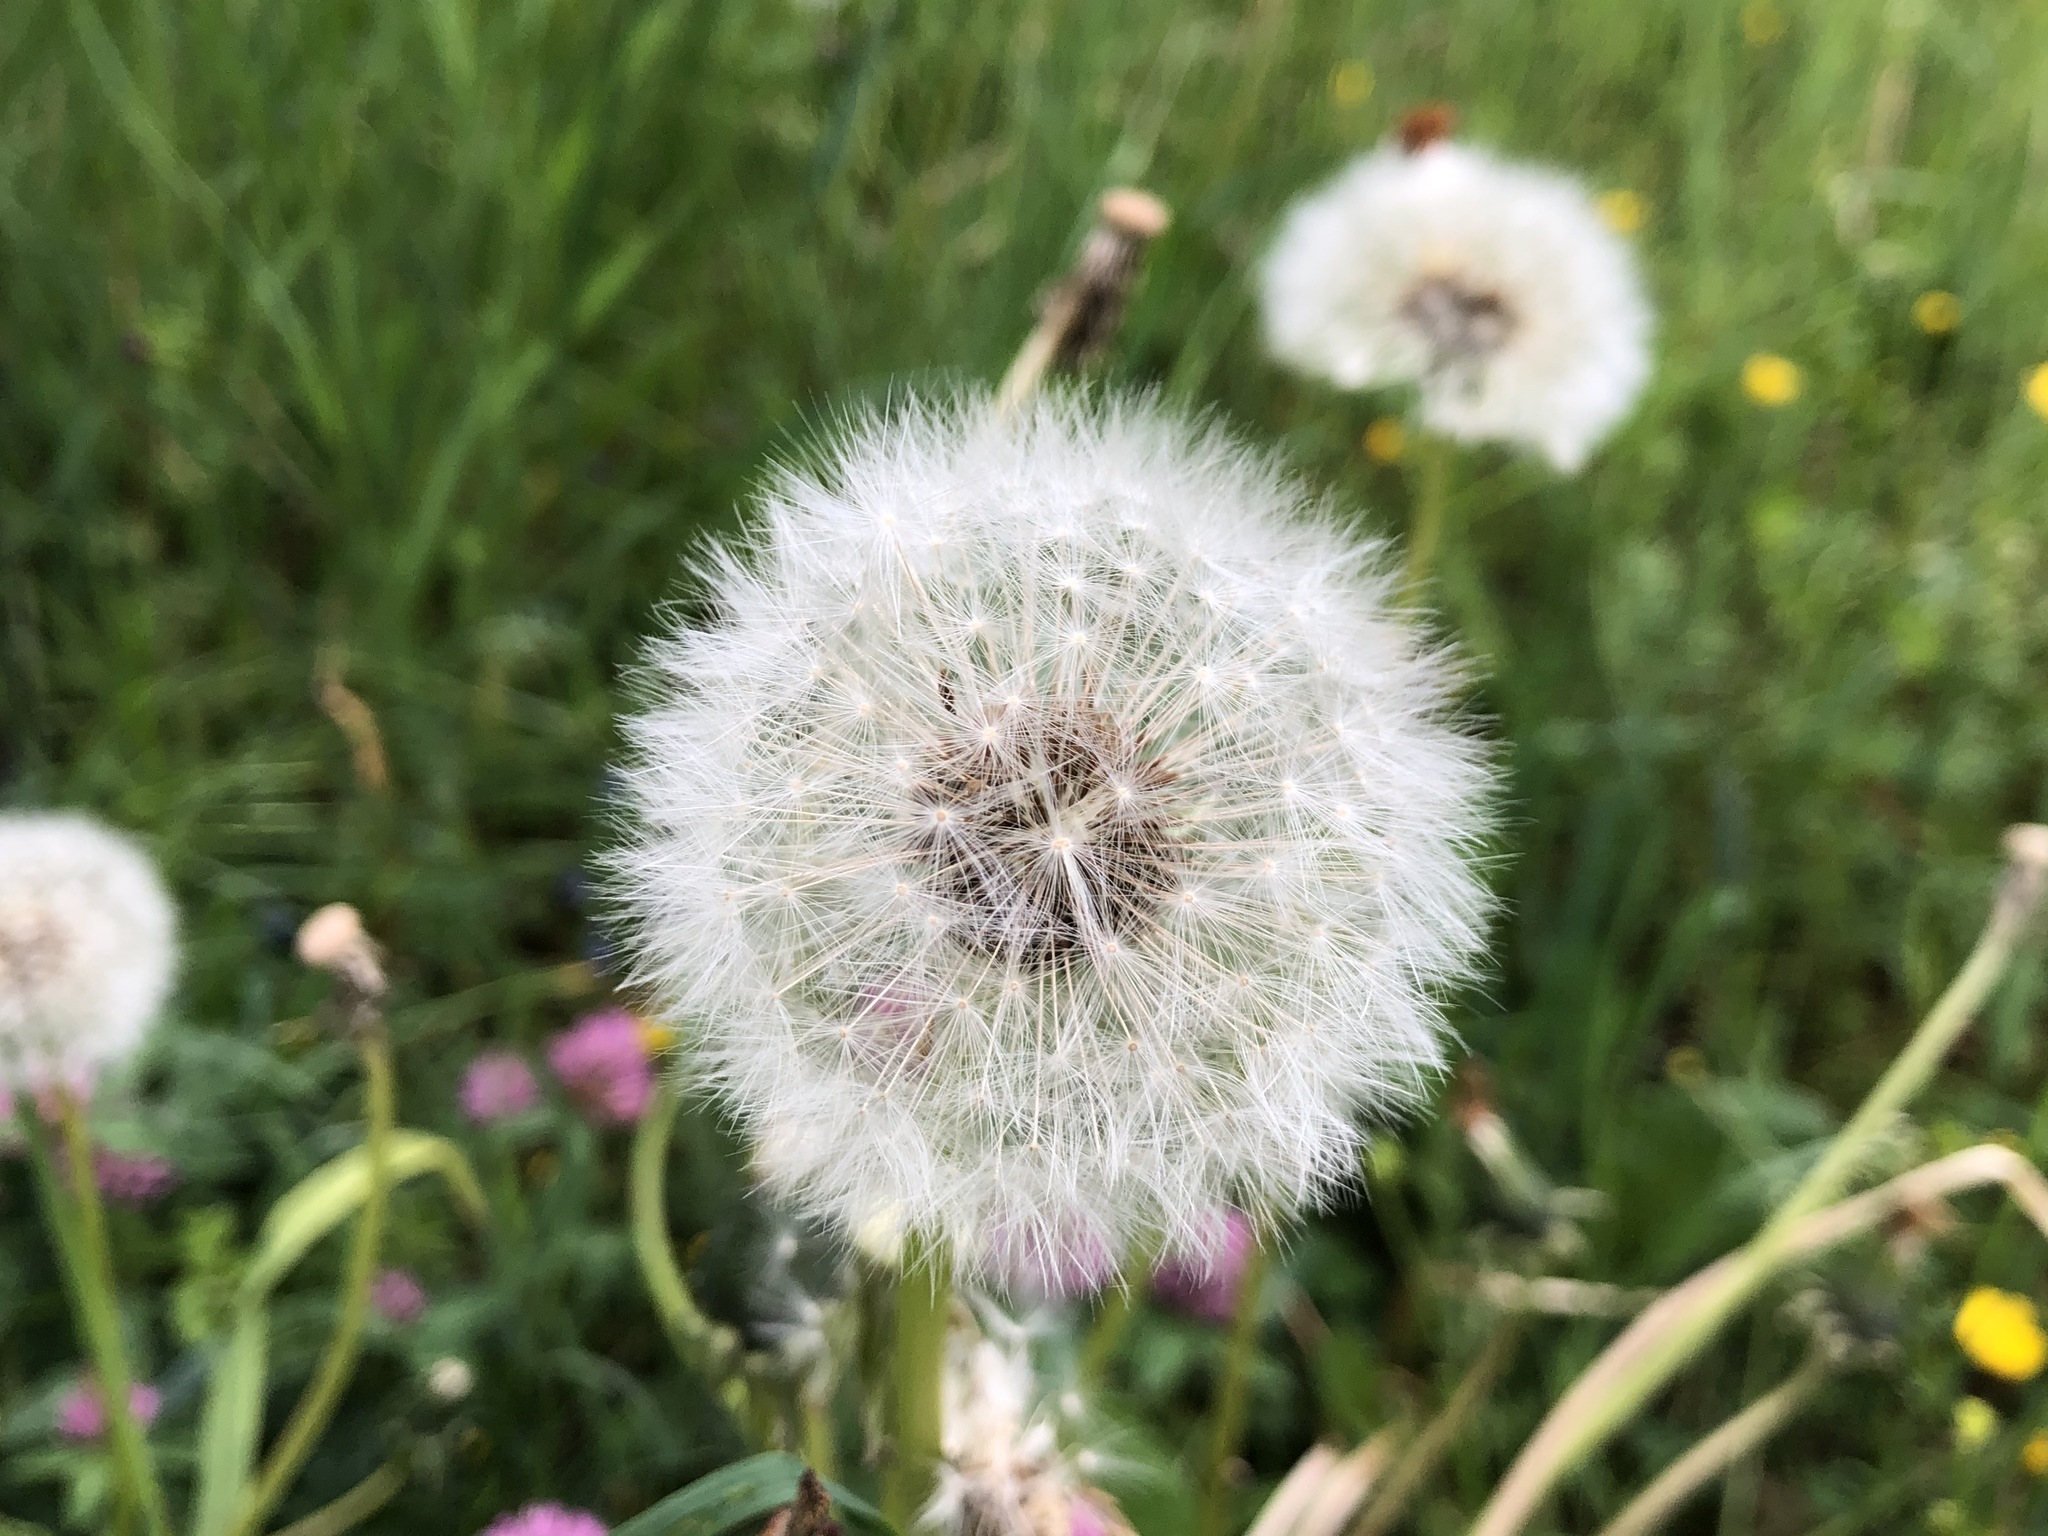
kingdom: Plantae
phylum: Tracheophyta
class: Magnoliopsida
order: Asterales
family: Asteraceae
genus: Taraxacum
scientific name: Taraxacum officinale
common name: Common dandelion
